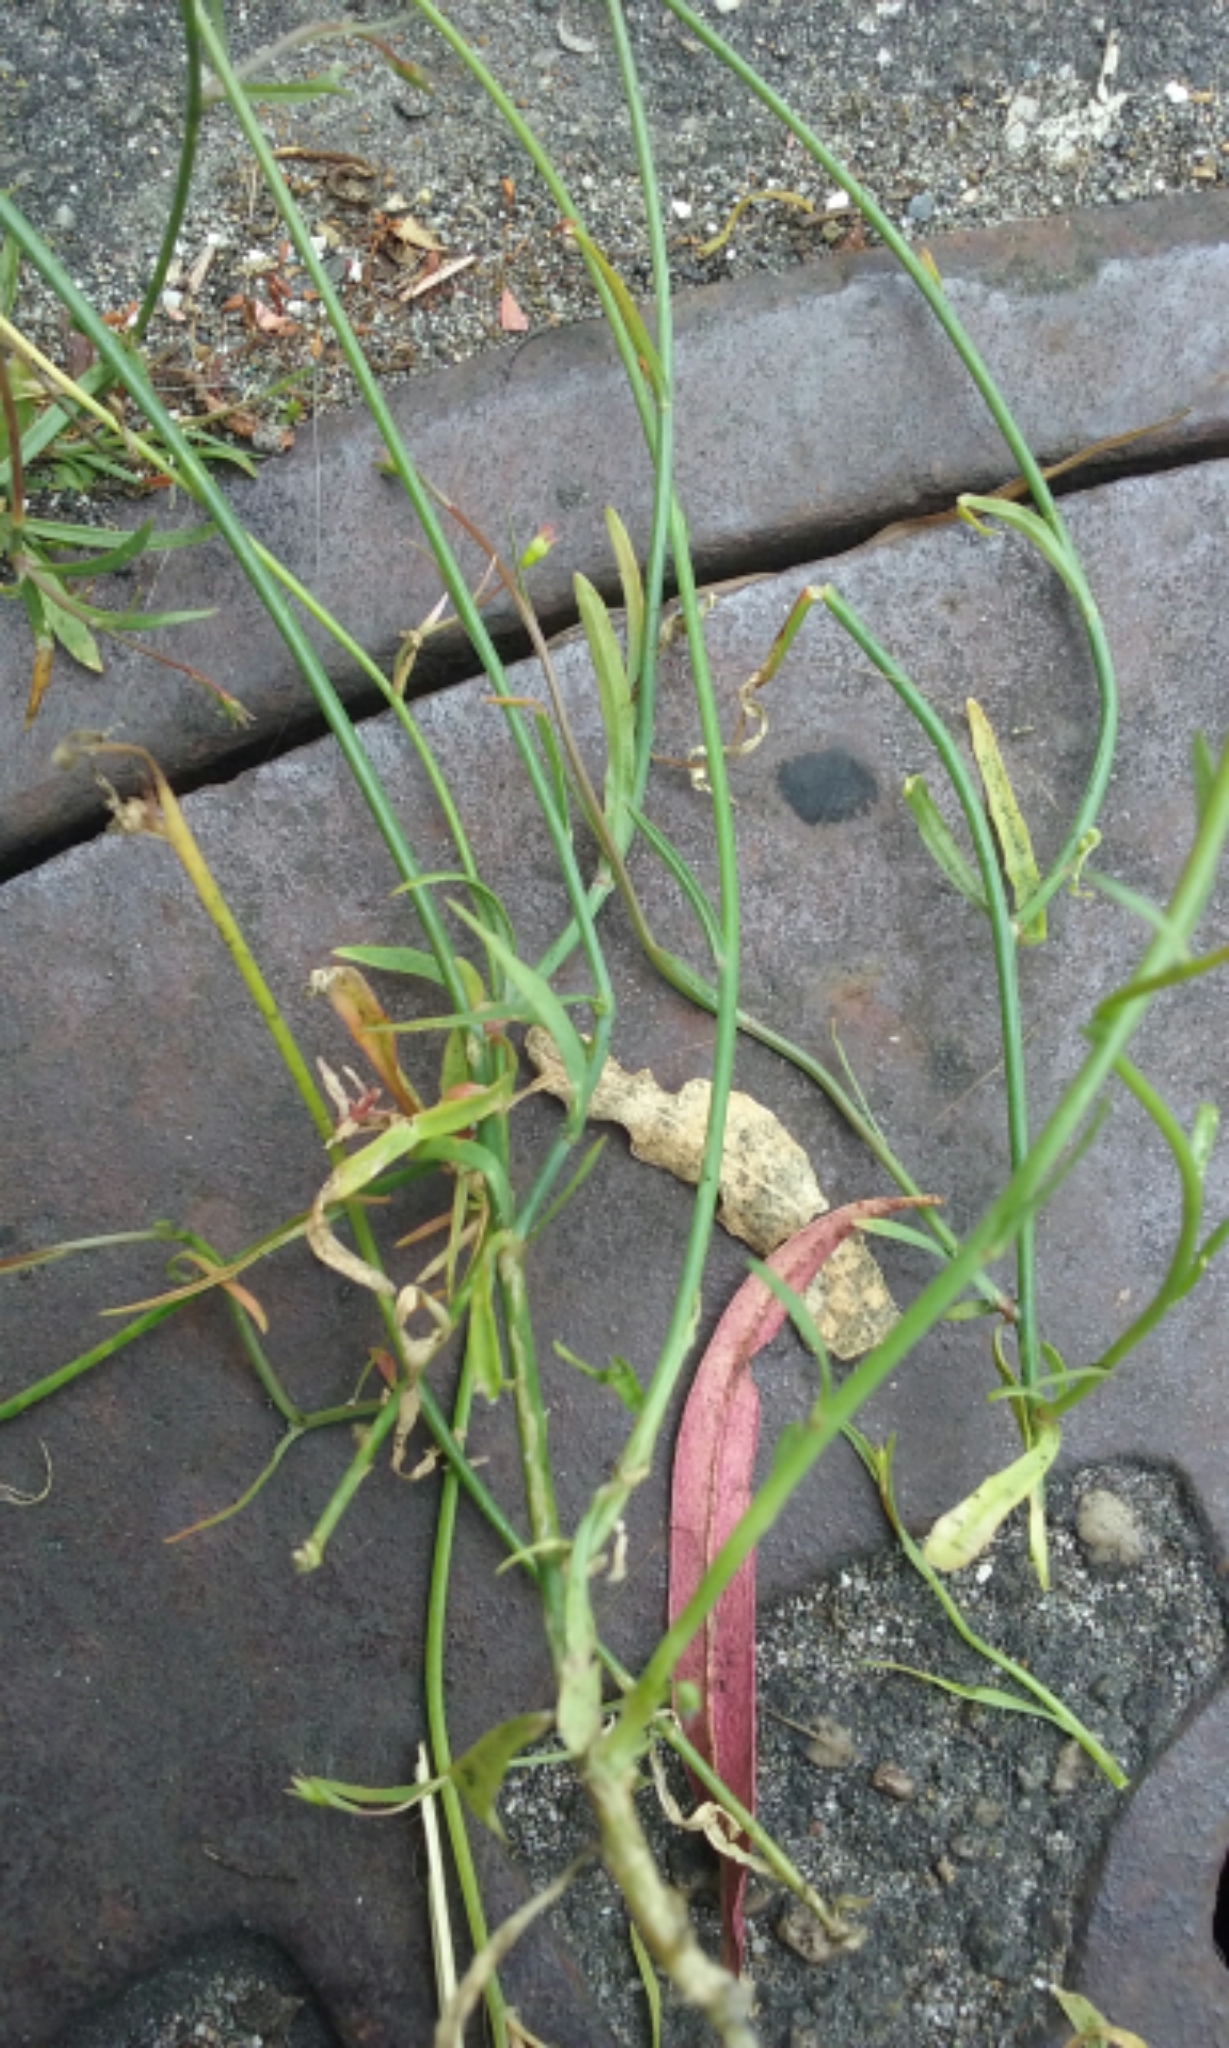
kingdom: Plantae
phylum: Tracheophyta
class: Magnoliopsida
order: Asterales
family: Campanulaceae
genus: Wahlenbergia
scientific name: Wahlenbergia marginata
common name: Southern rockbell
